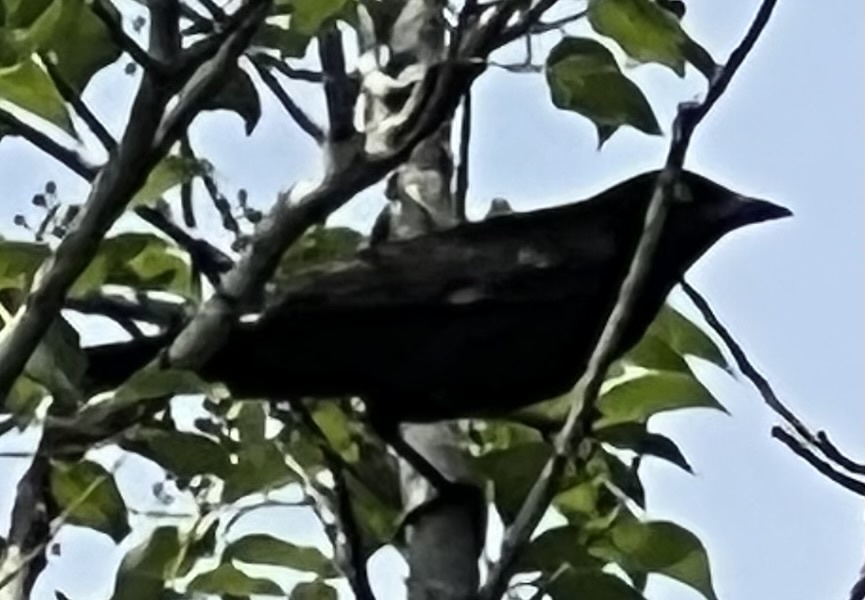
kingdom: Animalia
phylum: Chordata
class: Aves
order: Passeriformes
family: Icteridae
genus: Quiscalus
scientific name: Quiscalus quiscula
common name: Common grackle
